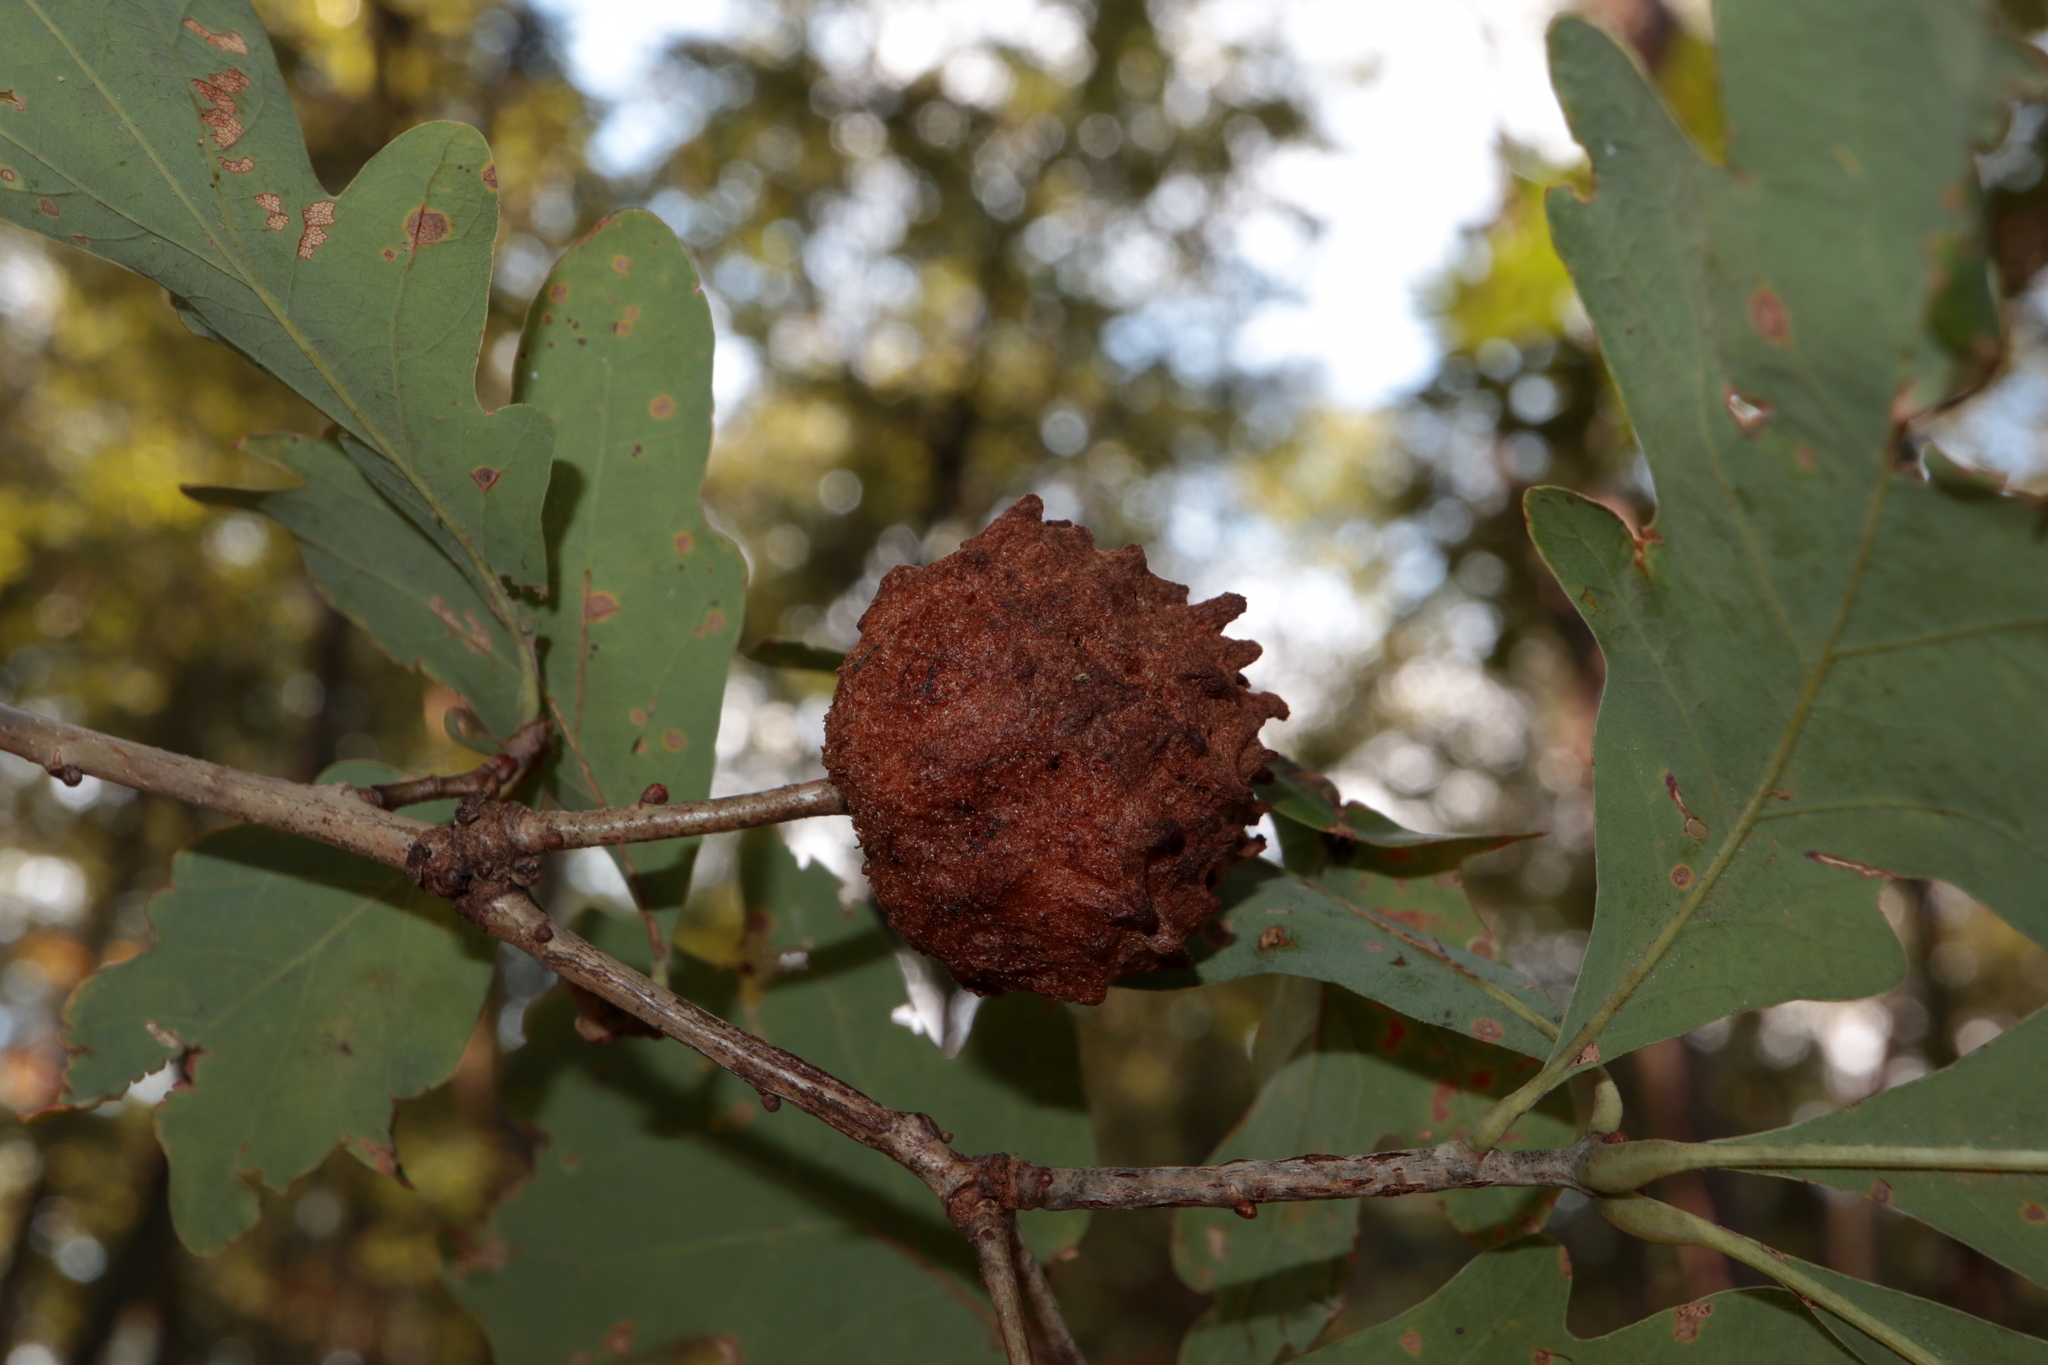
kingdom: Animalia
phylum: Arthropoda
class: Insecta
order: Hymenoptera
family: Cynipidae
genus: Callirhytis
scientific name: Callirhytis
